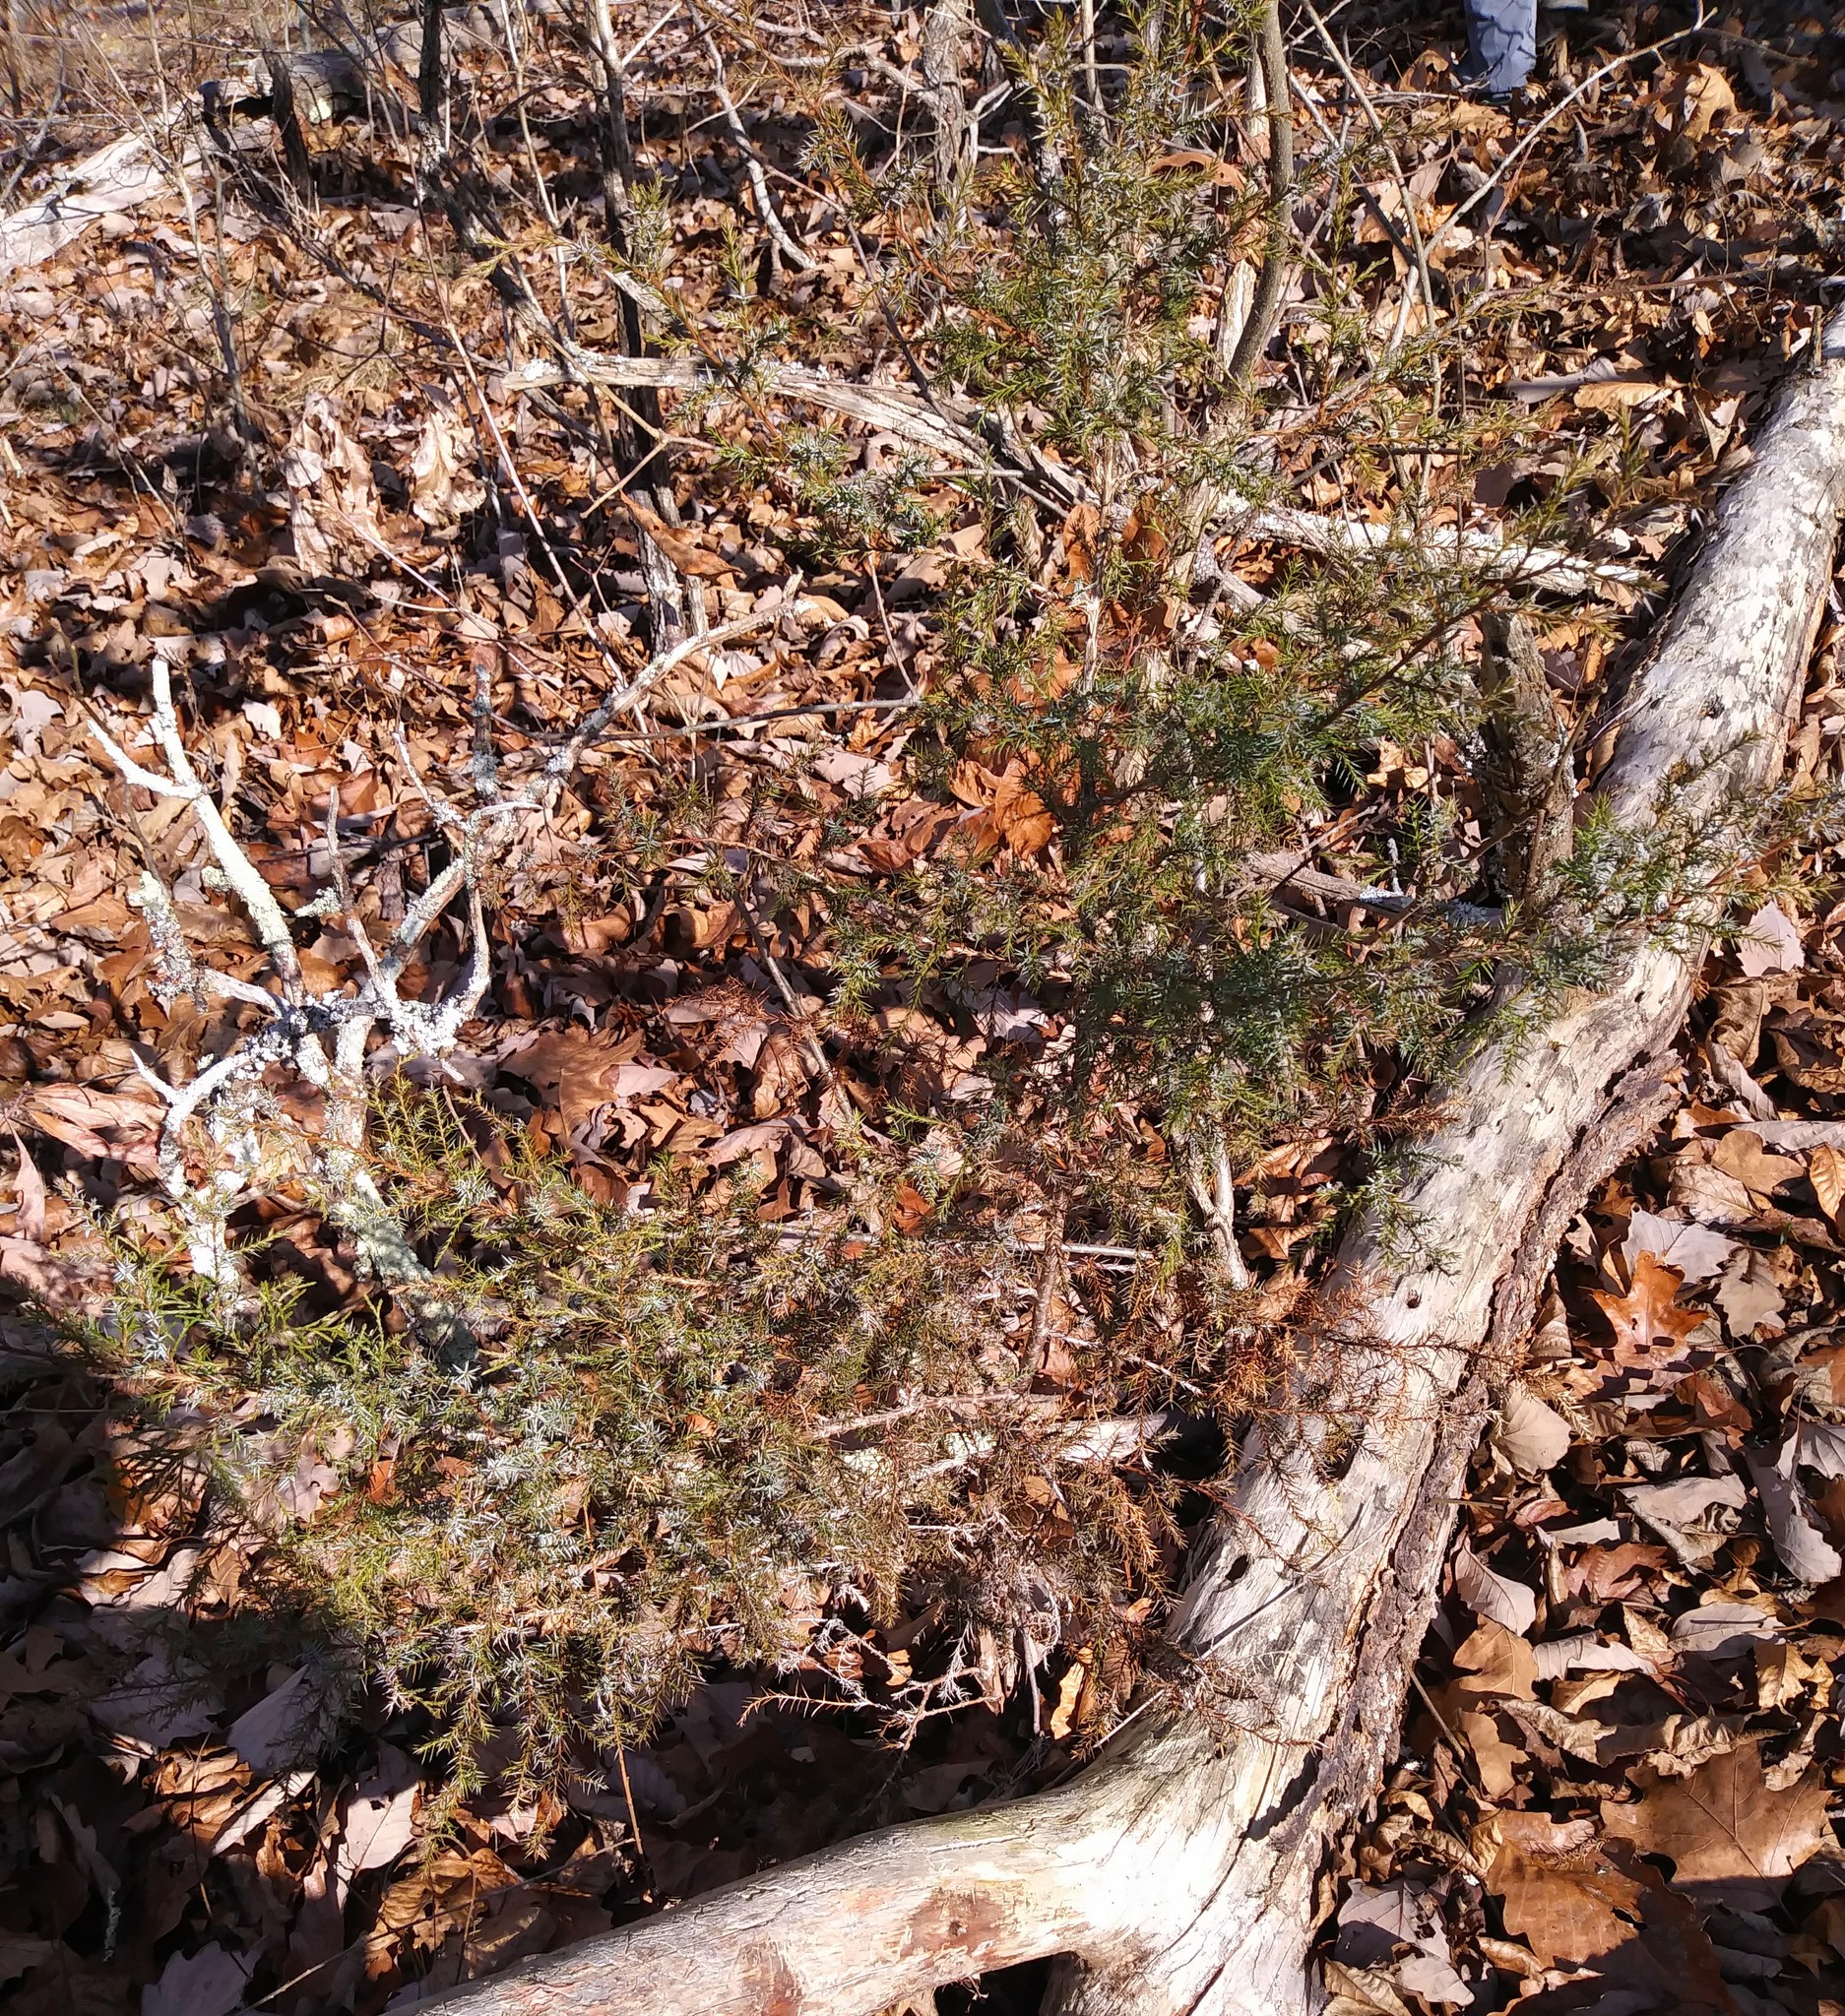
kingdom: Plantae
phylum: Tracheophyta
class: Pinopsida
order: Pinales
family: Cupressaceae
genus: Juniperus
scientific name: Juniperus virginiana
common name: Red juniper
